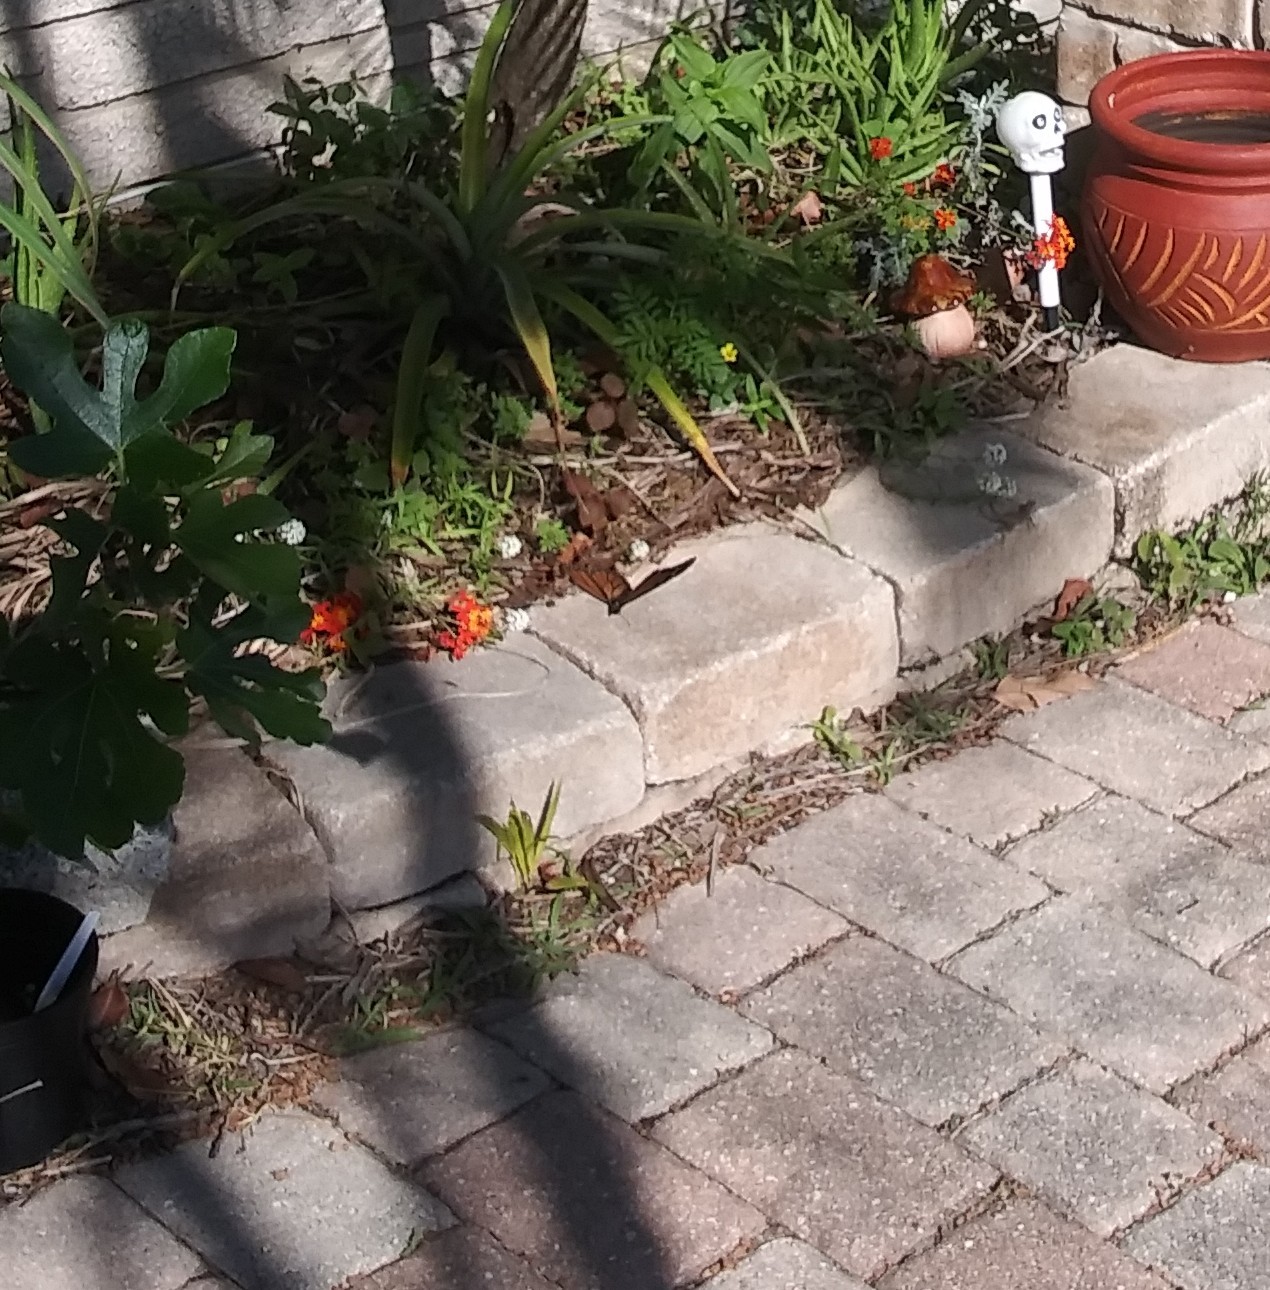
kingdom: Animalia
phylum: Arthropoda
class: Insecta
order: Lepidoptera
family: Nymphalidae
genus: Danaus
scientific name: Danaus plexippus
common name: Monarch
